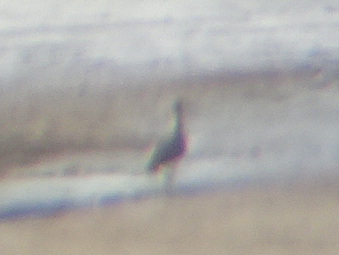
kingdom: Animalia
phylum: Chordata
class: Aves
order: Charadriiformes
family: Scolopacidae
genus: Numenius
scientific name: Numenius
